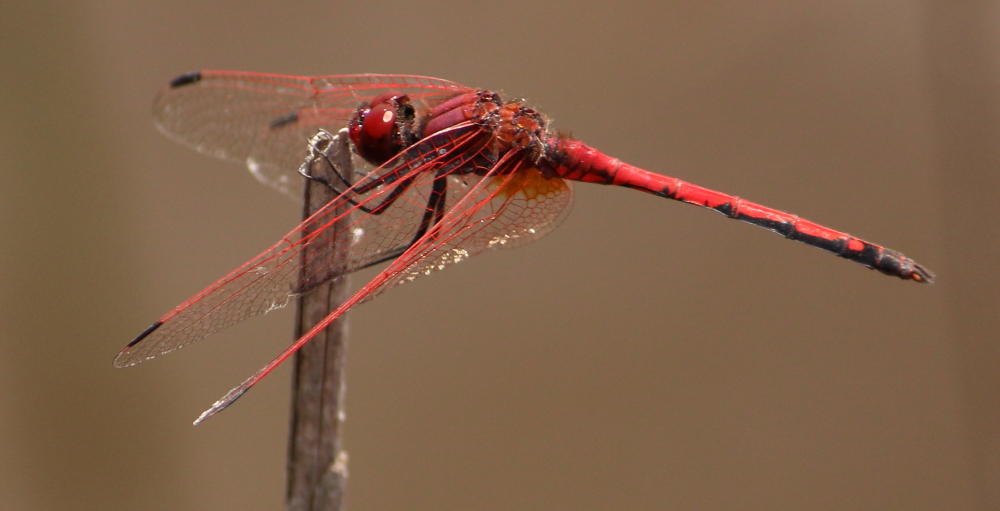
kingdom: Animalia
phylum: Arthropoda
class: Insecta
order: Odonata
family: Libellulidae
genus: Trithemis
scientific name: Trithemis arteriosa
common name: Red-veined dropwing
